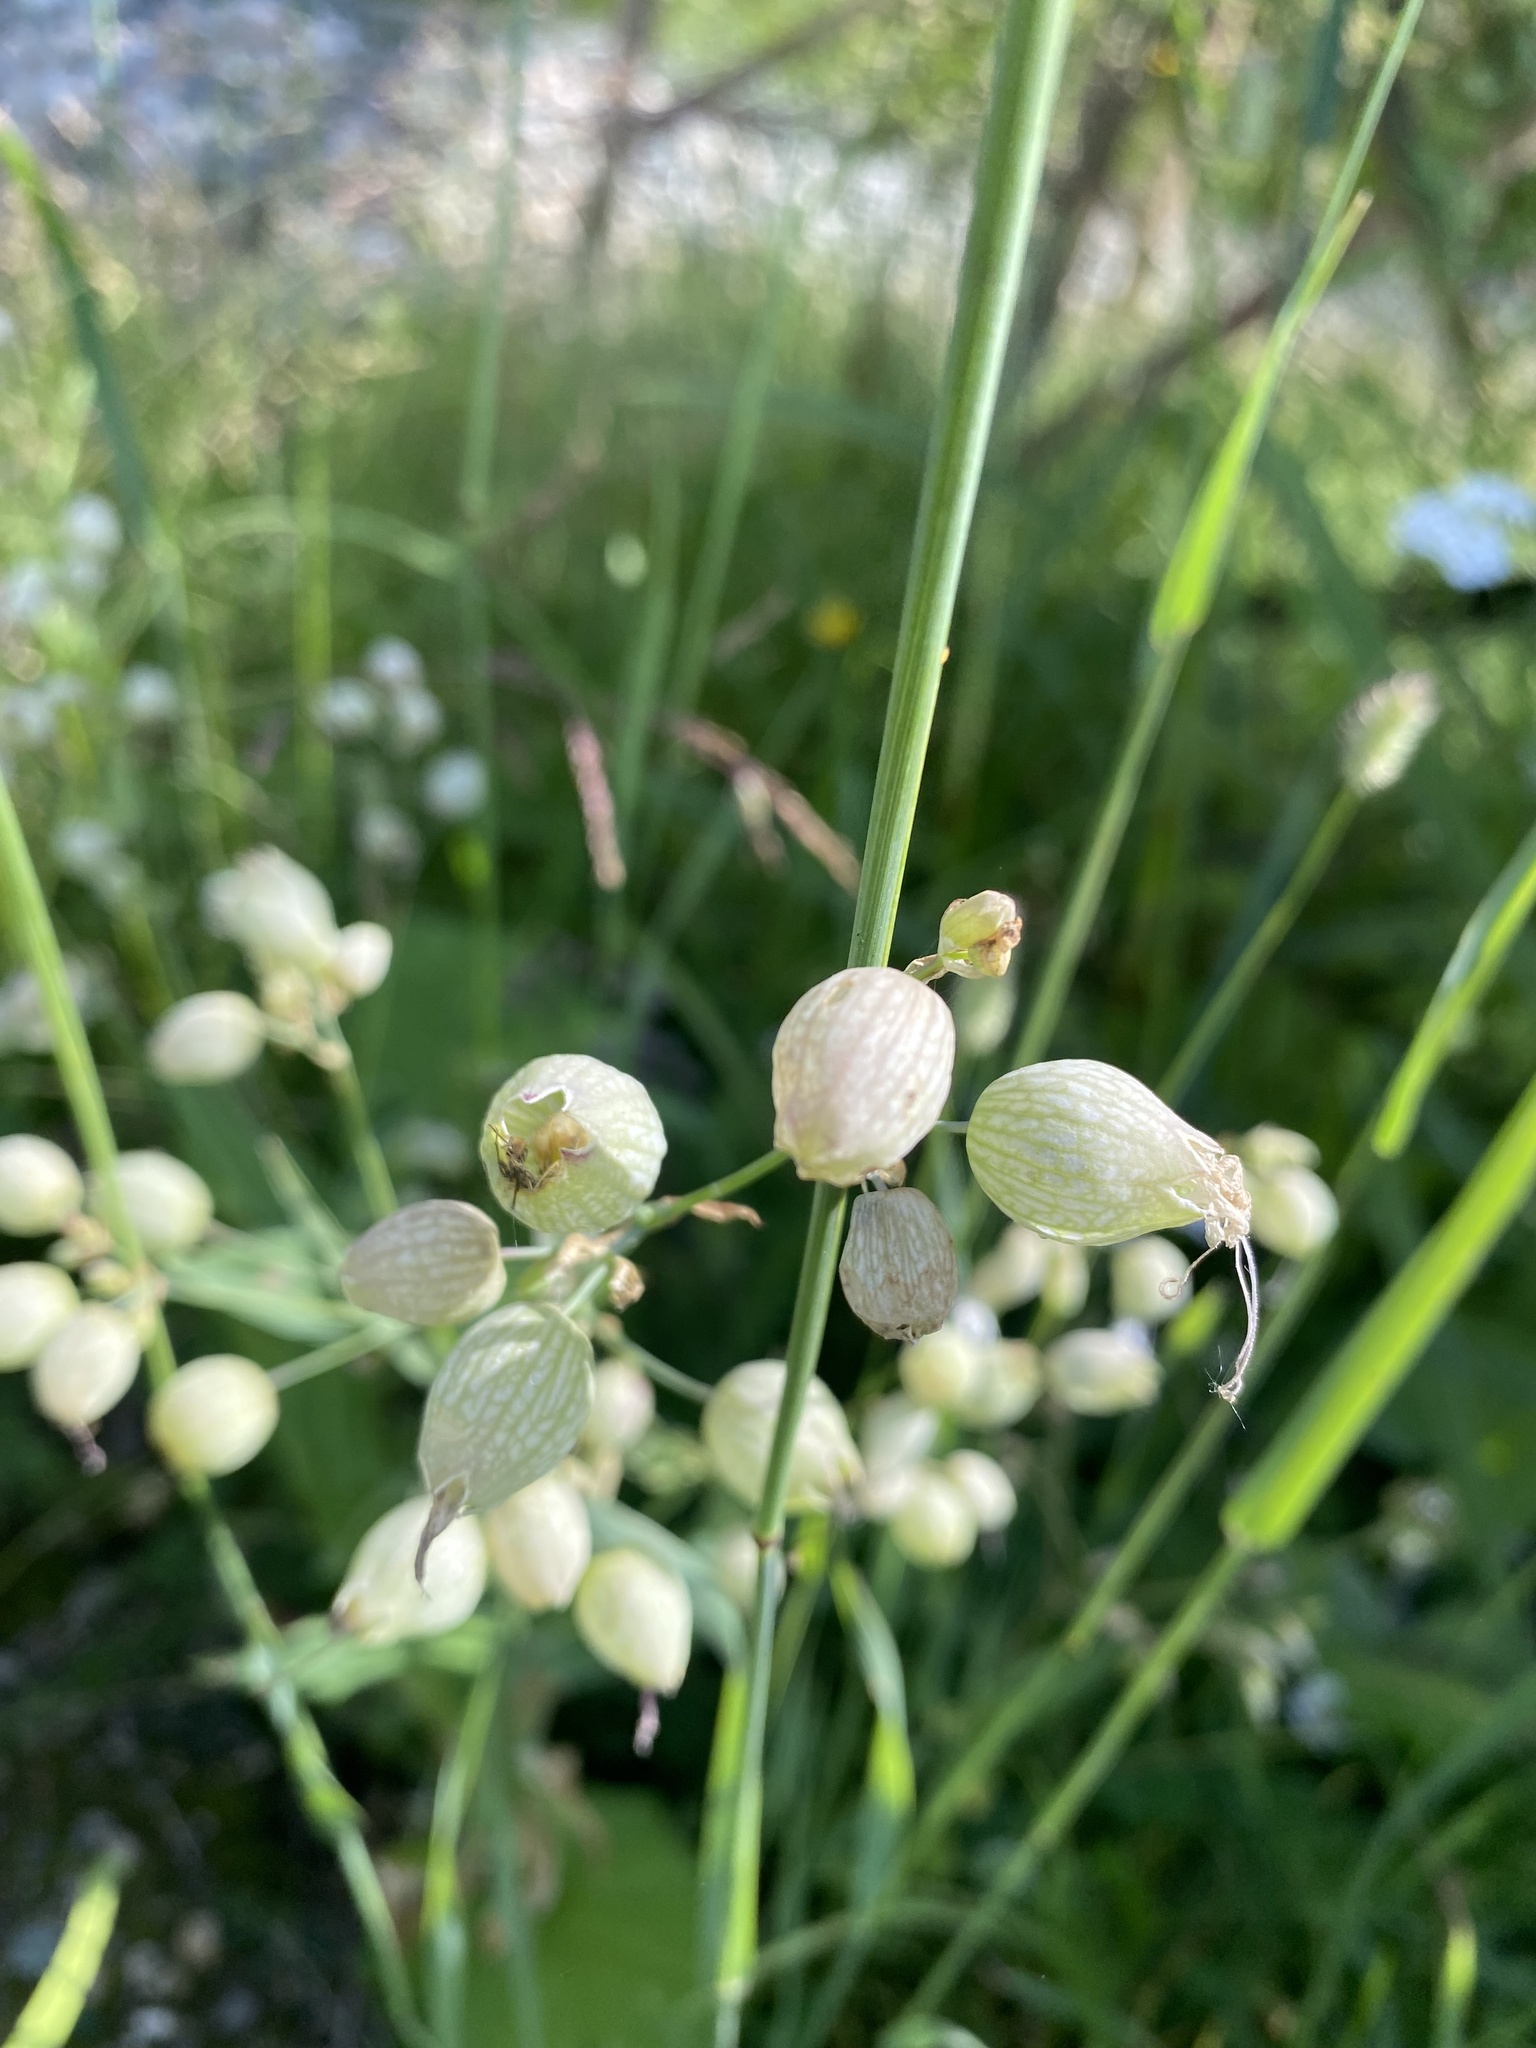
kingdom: Plantae
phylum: Tracheophyta
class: Magnoliopsida
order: Caryophyllales
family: Caryophyllaceae
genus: Silene
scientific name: Silene vulgaris
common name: Bladder campion
